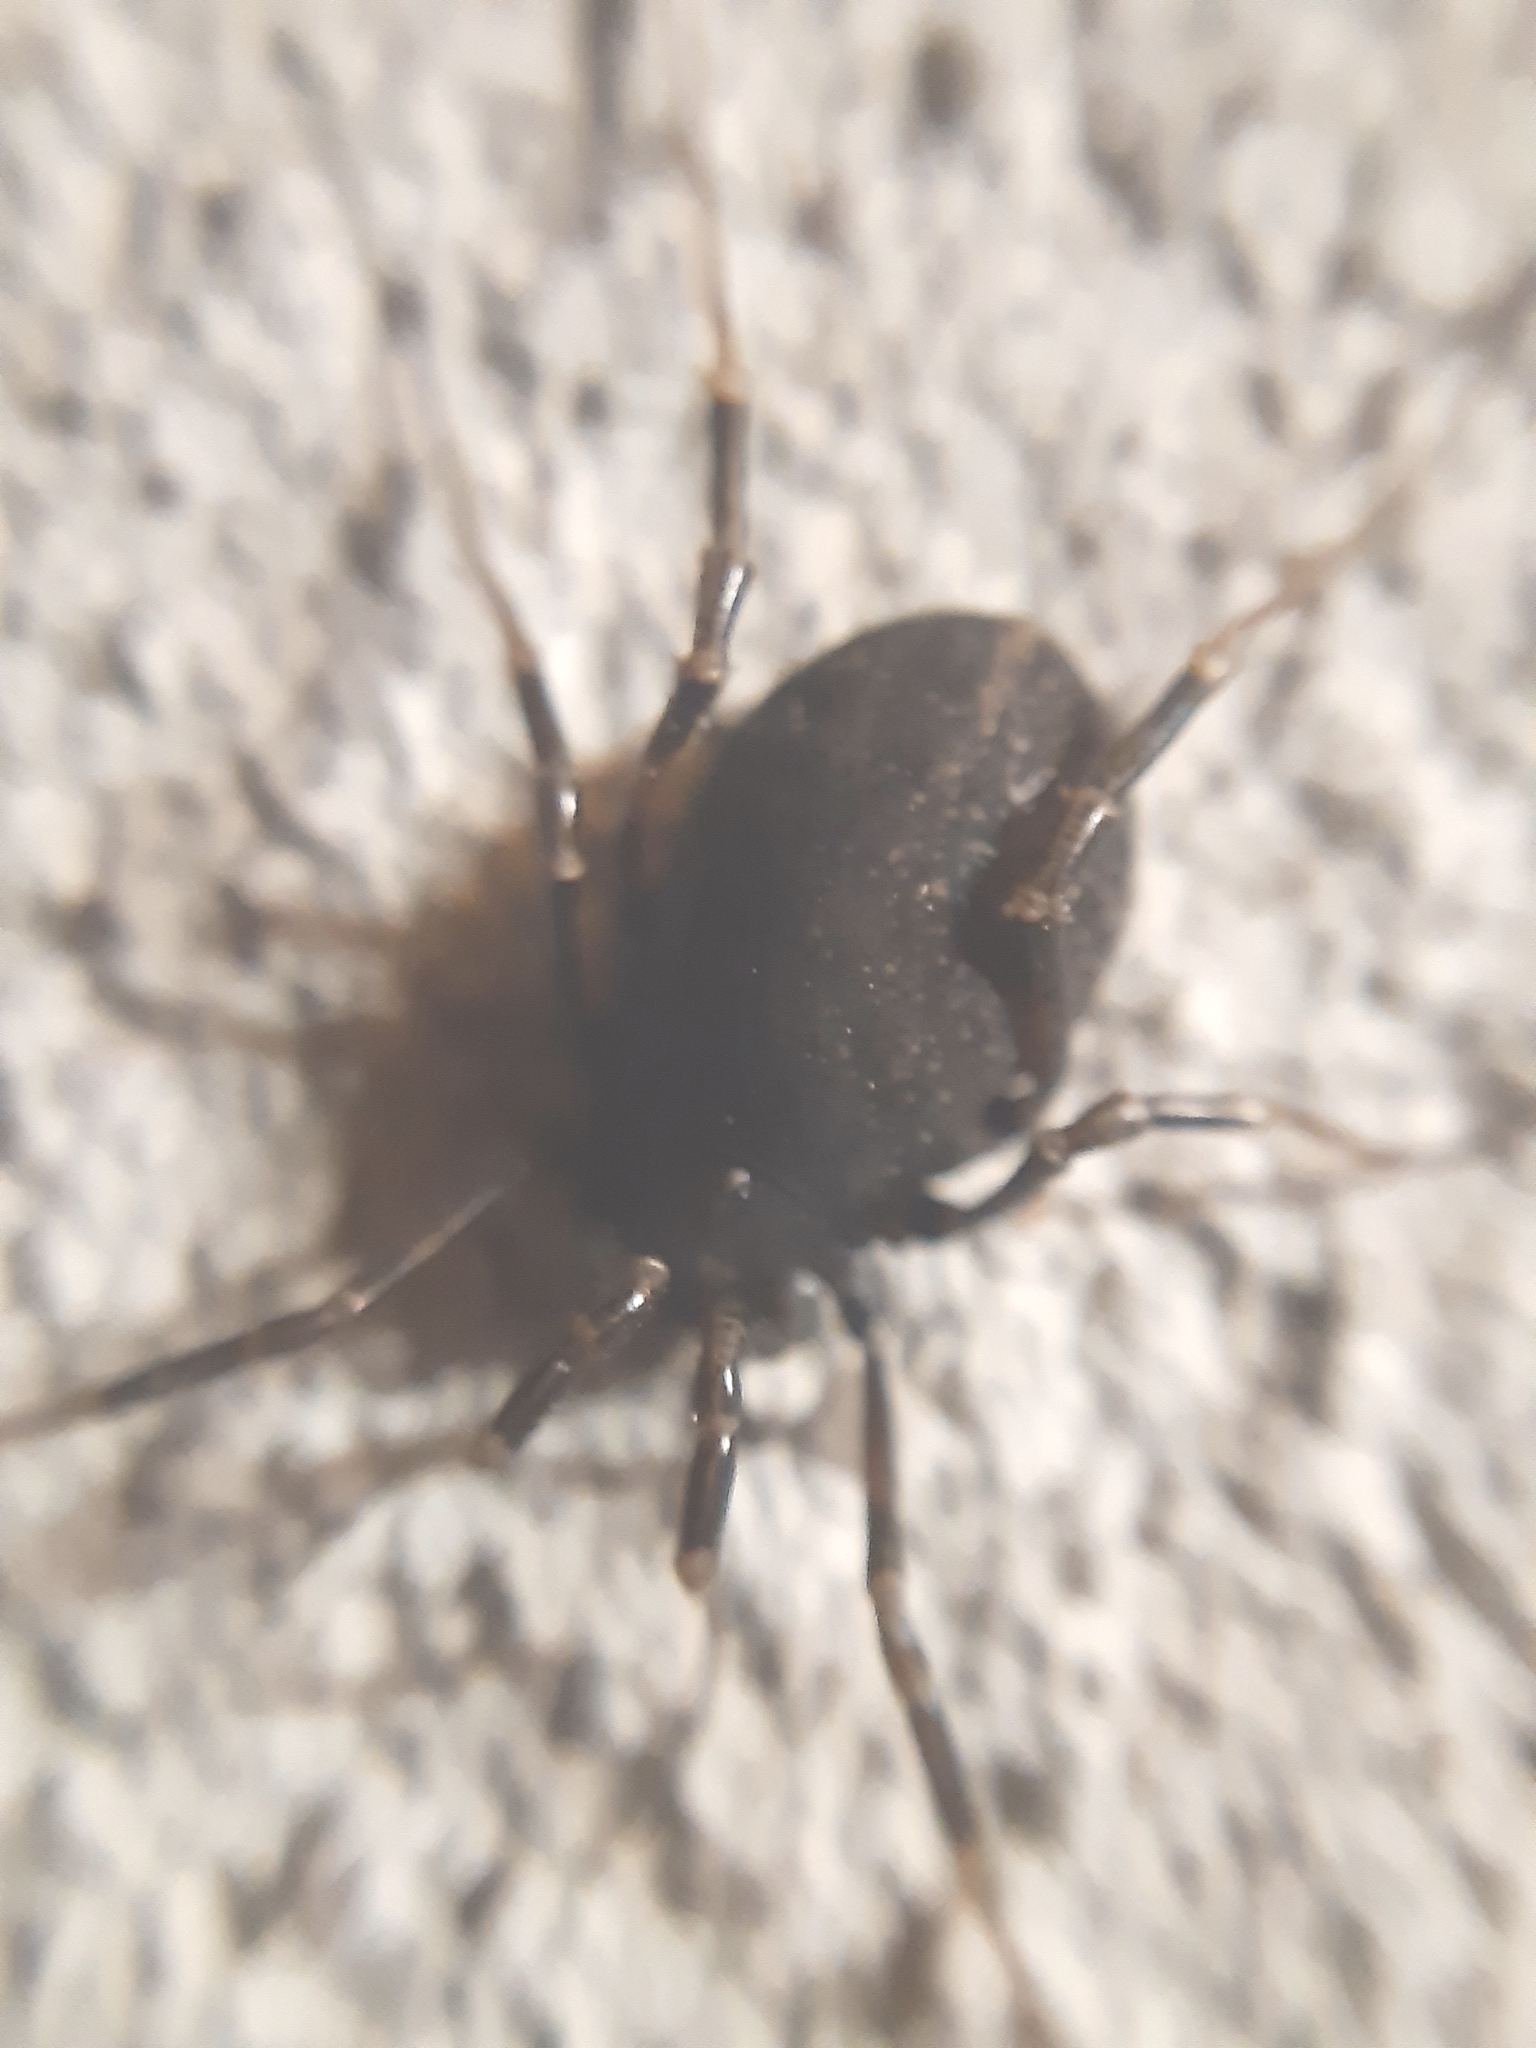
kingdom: Animalia
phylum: Arthropoda
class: Arachnida
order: Opiliones
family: Phalangiidae
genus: Egaenus
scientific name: Egaenus convexus
